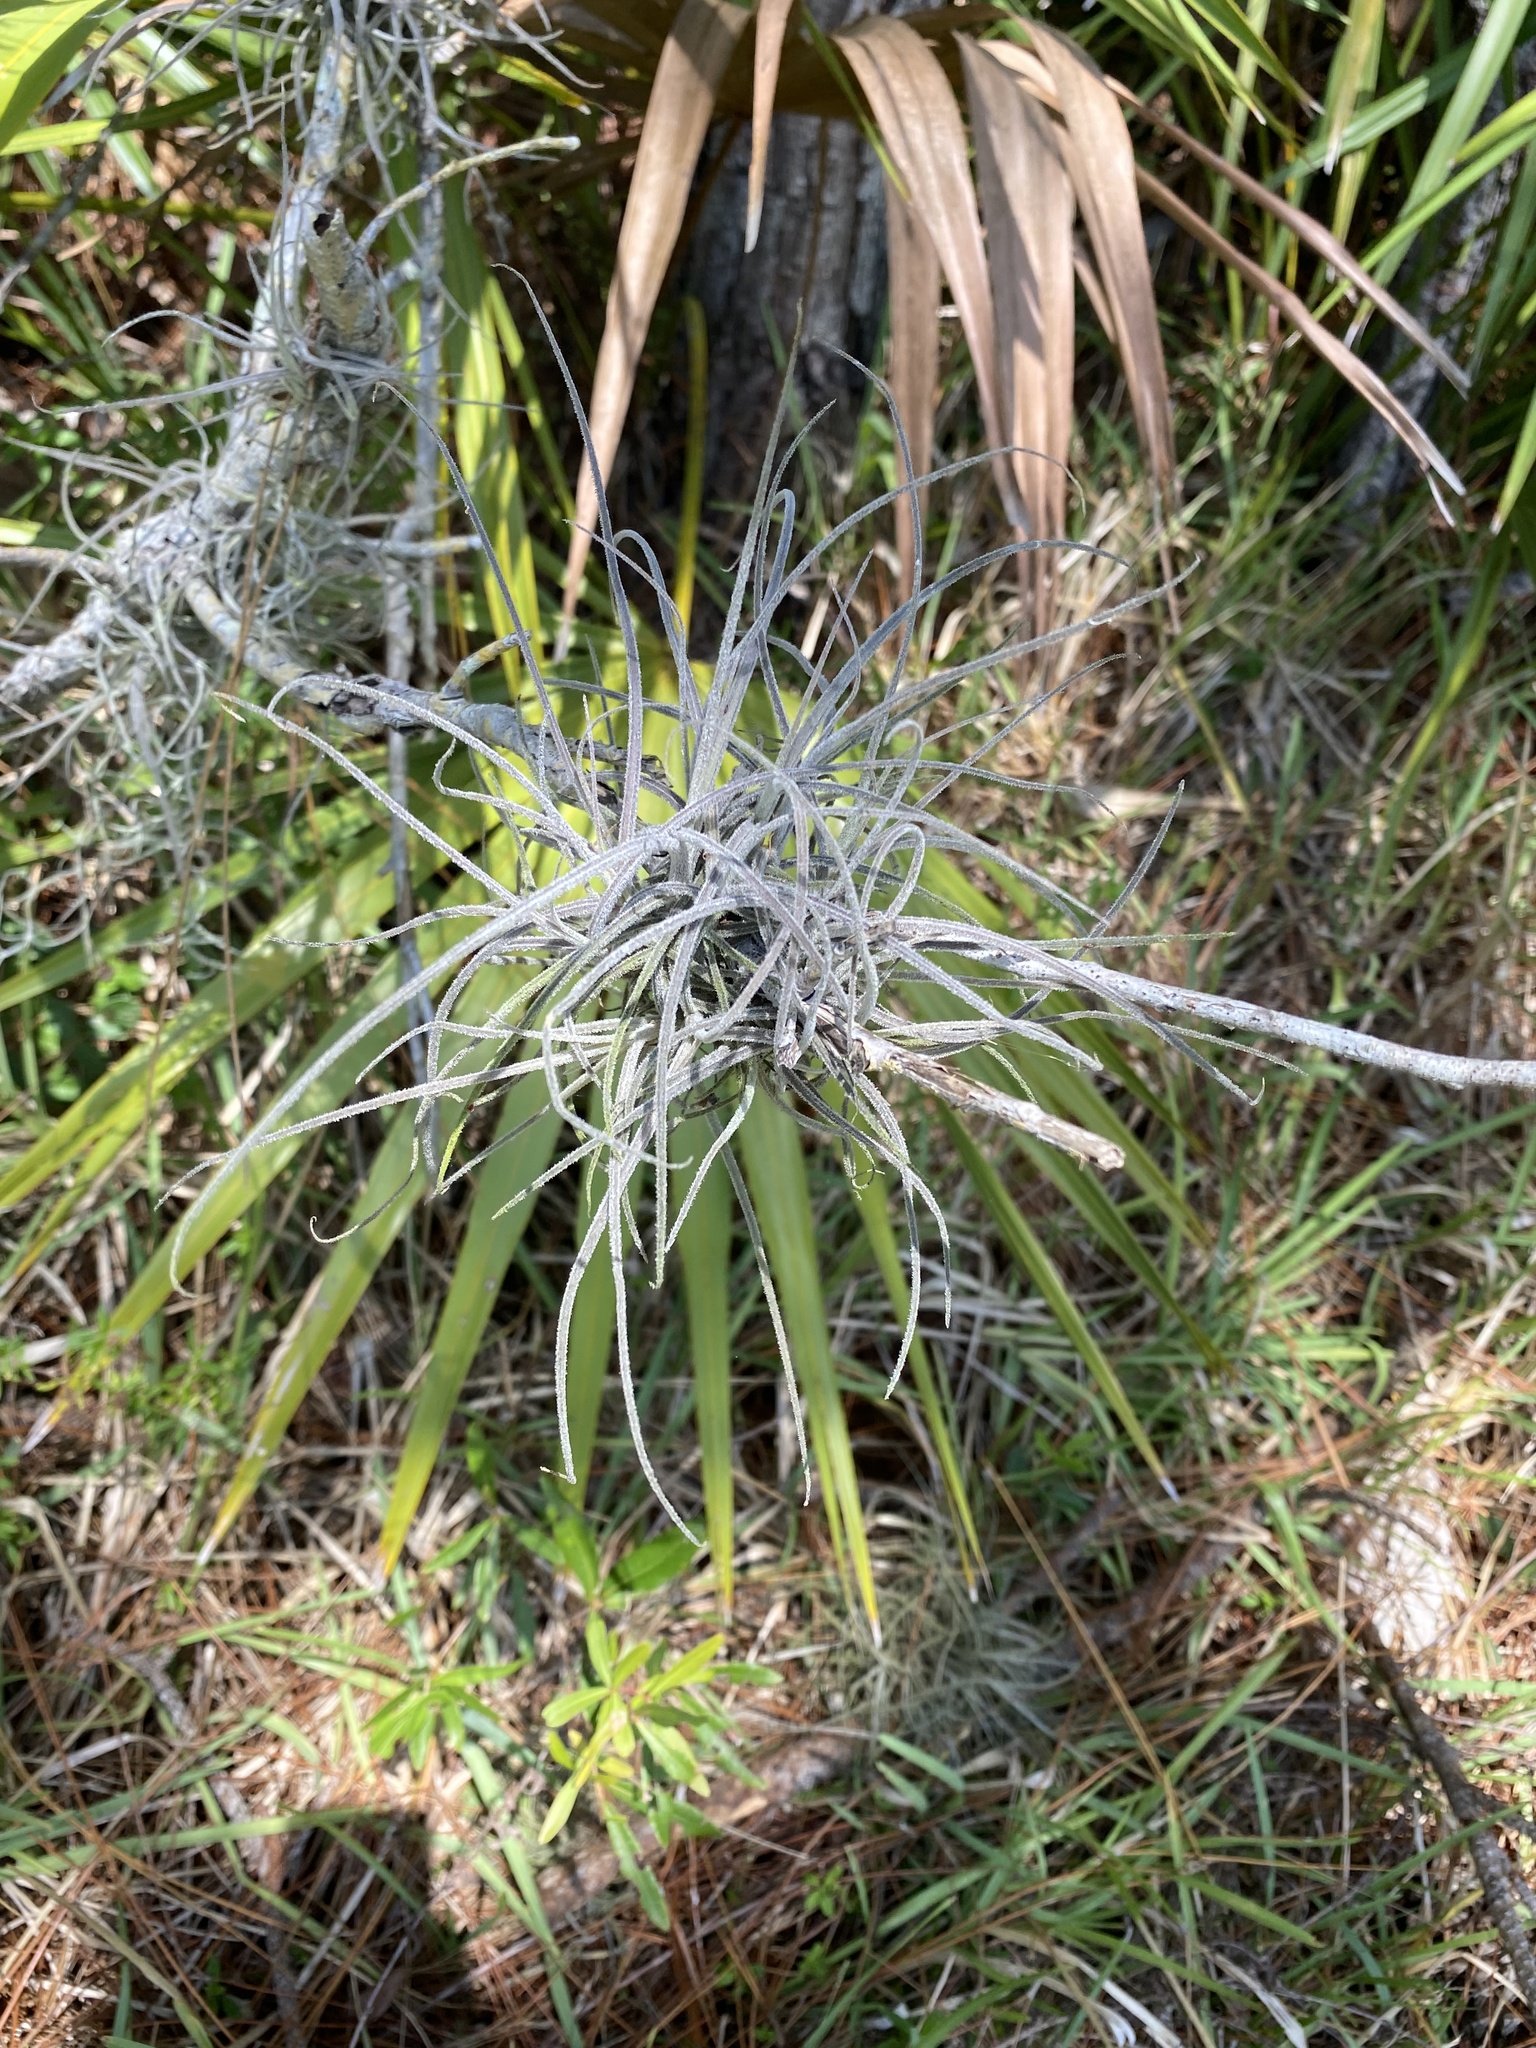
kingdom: Plantae
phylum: Tracheophyta
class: Liliopsida
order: Poales
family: Bromeliaceae
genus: Tillandsia
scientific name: Tillandsia recurvata
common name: Small ballmoss
